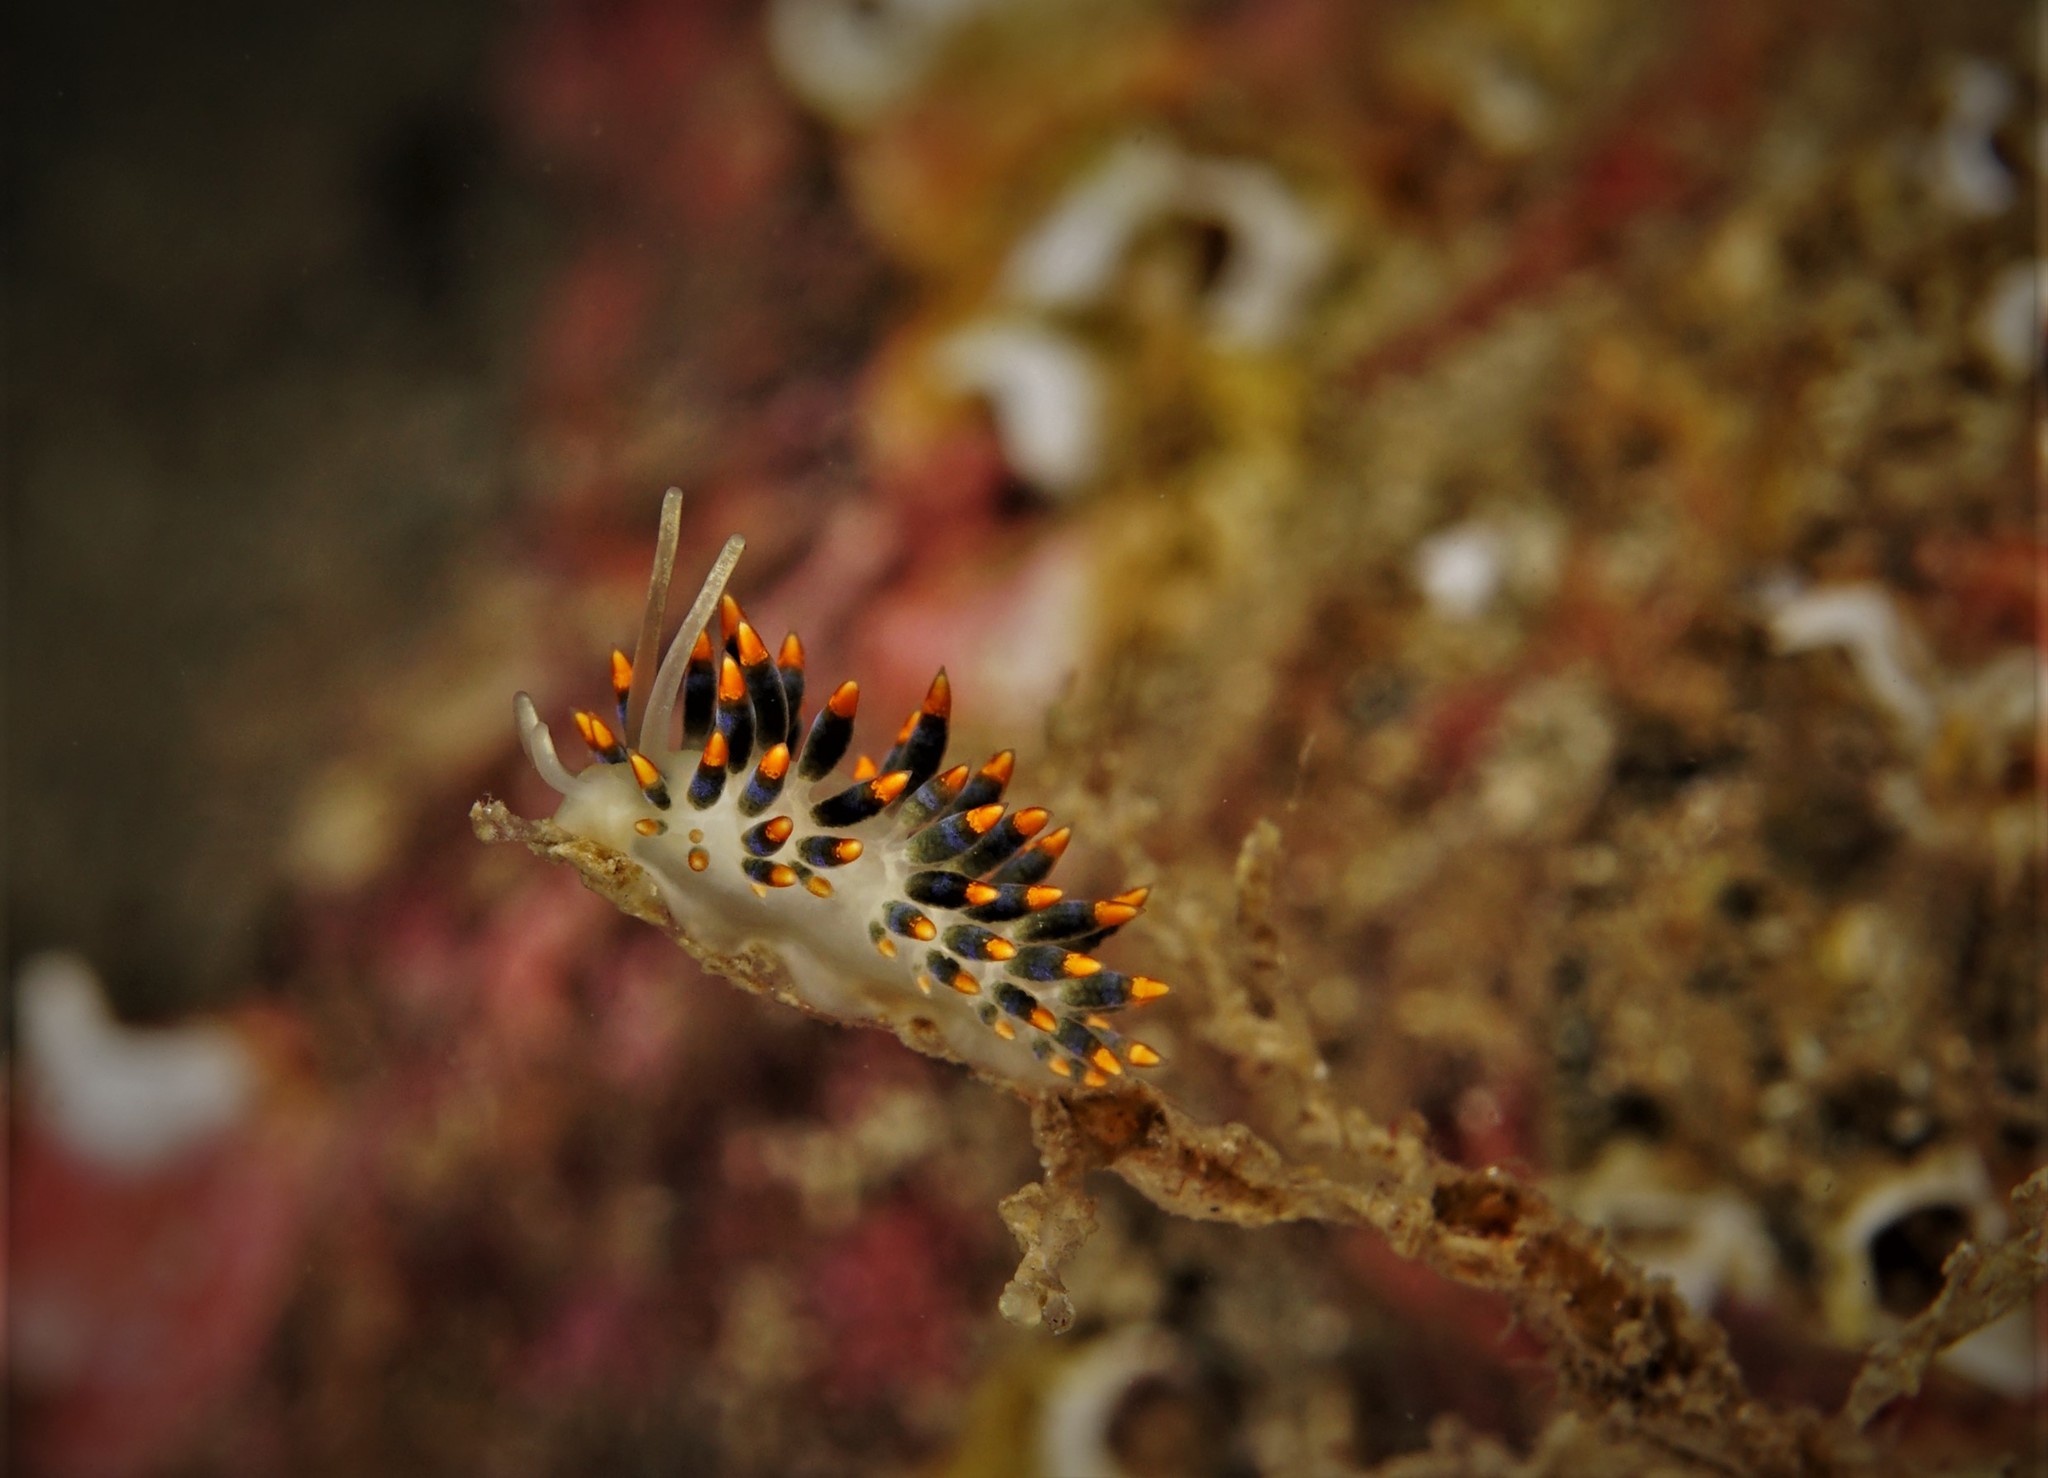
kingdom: Animalia
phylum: Mollusca
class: Gastropoda
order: Nudibranchia
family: Trinchesiidae
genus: Trinchesia
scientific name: Trinchesia cuanensis
